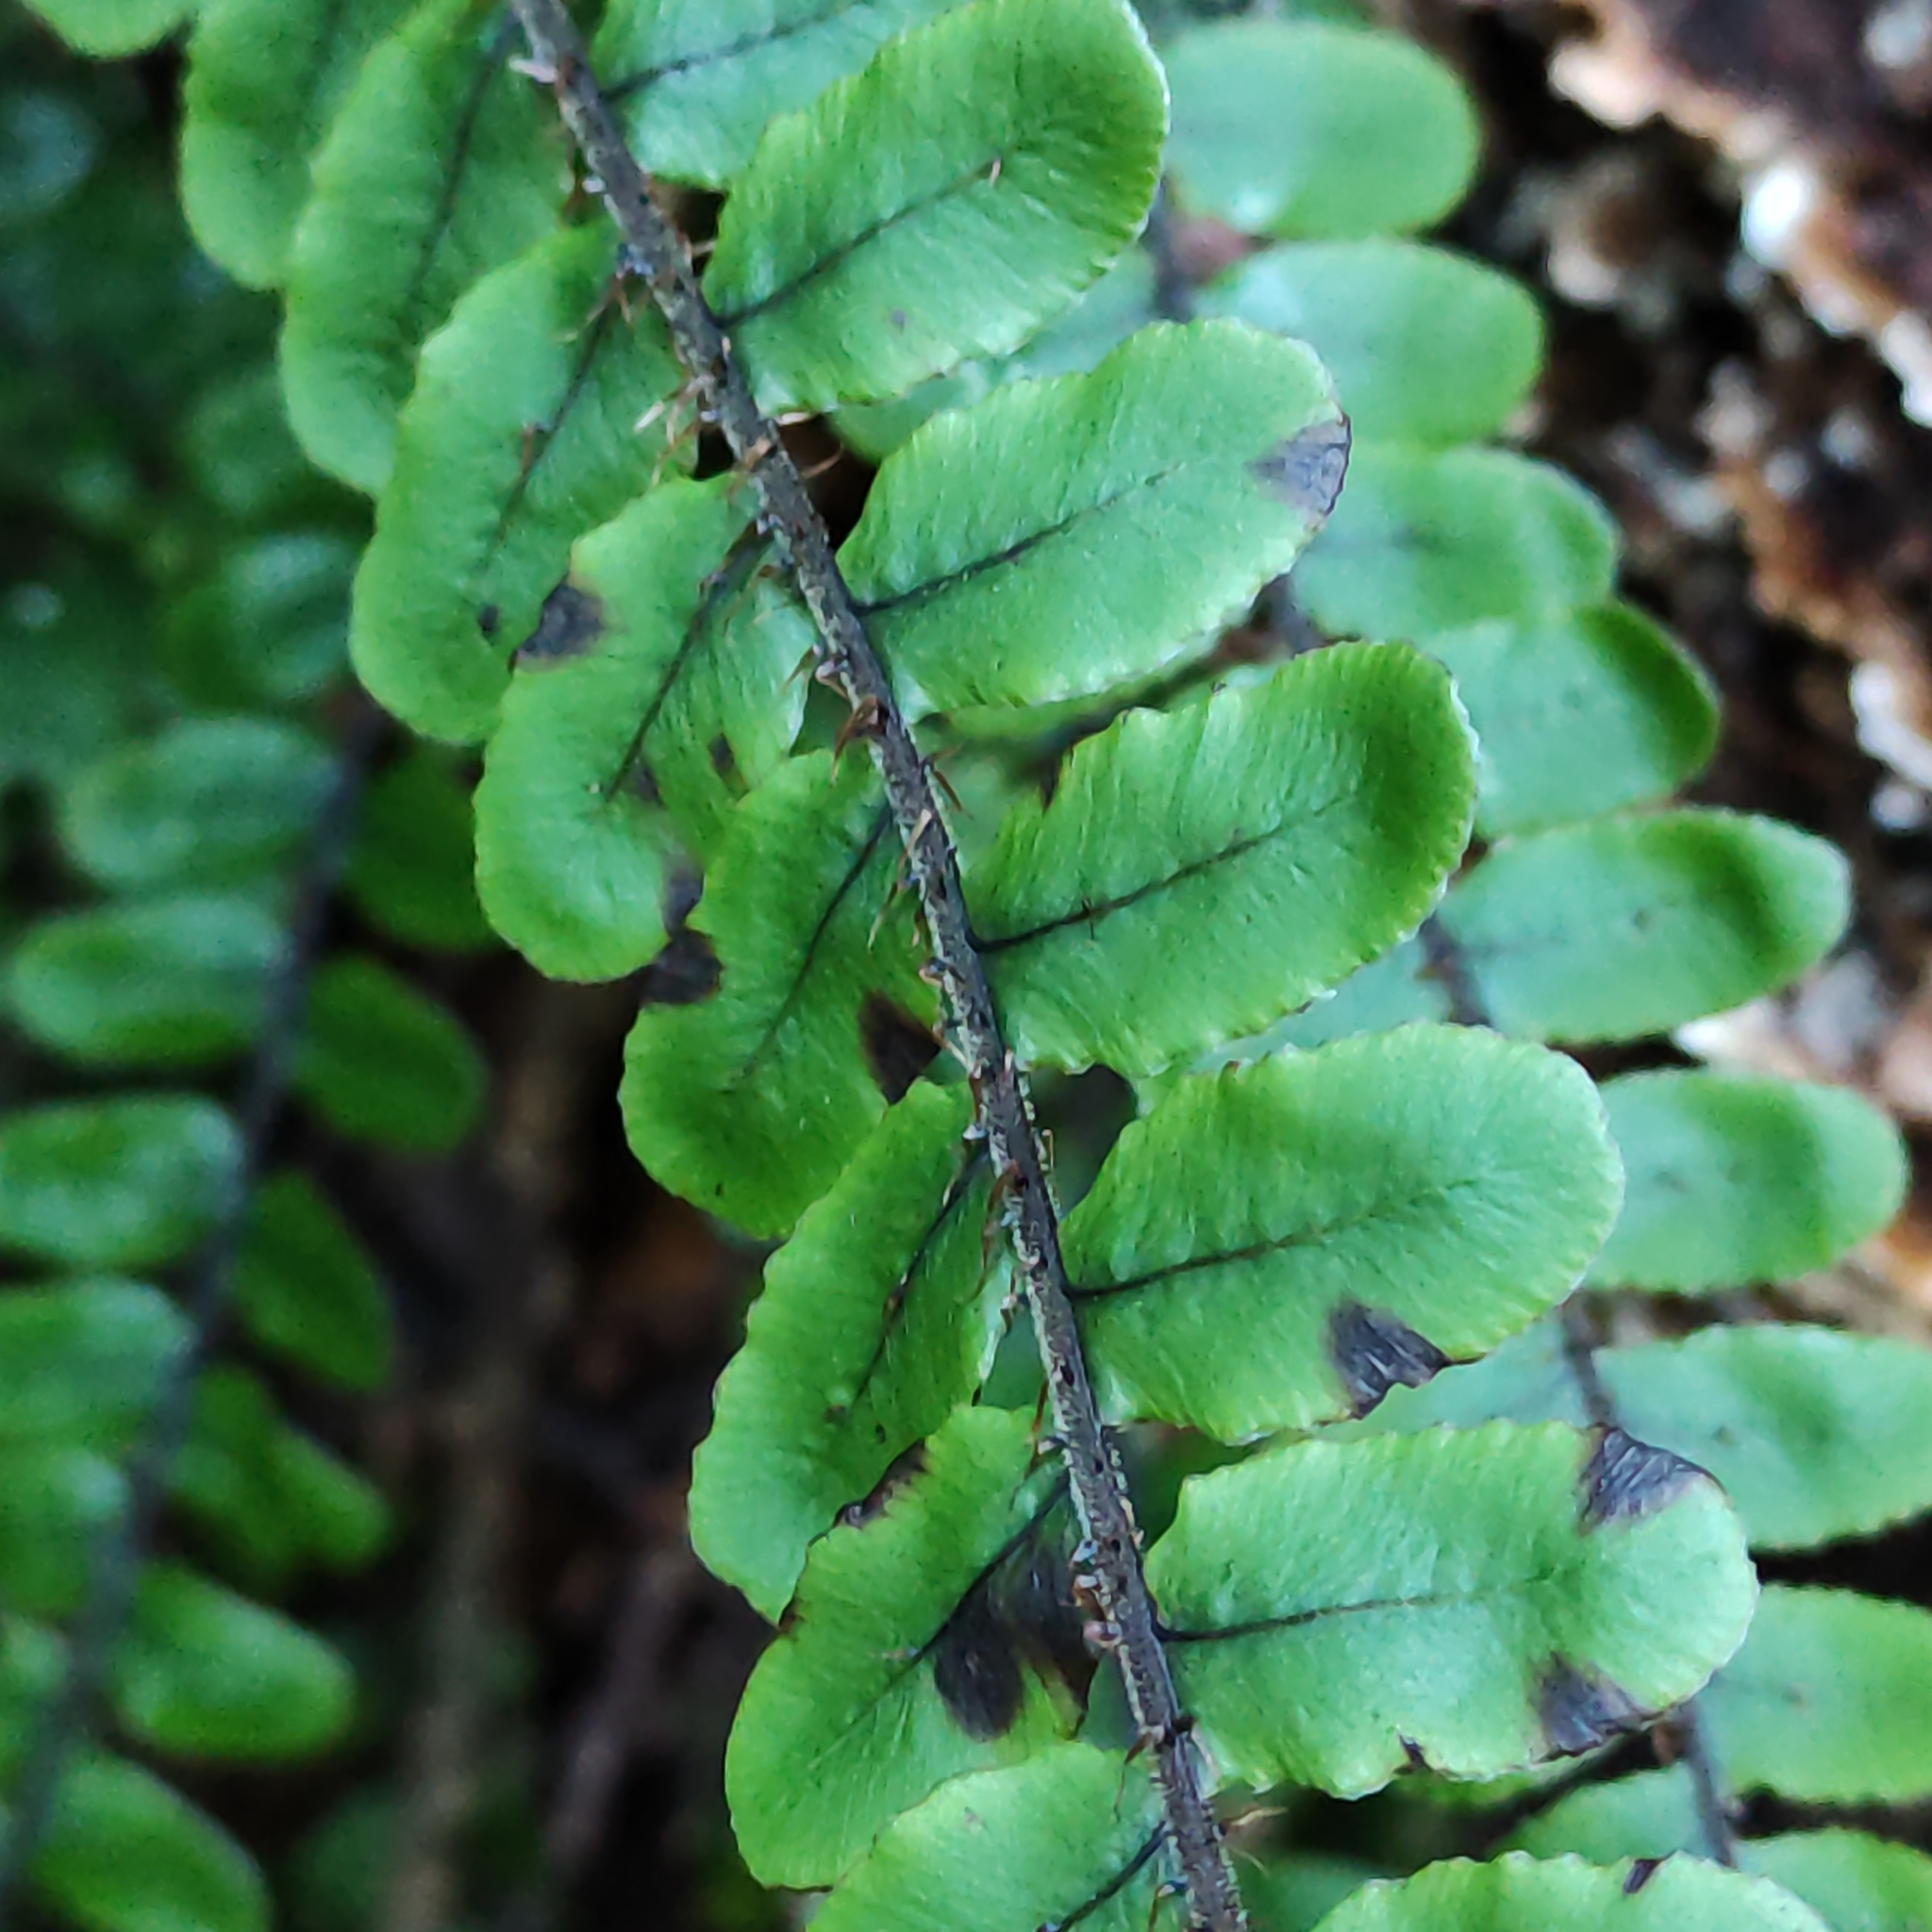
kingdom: Plantae
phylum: Tracheophyta
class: Polypodiopsida
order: Polypodiales
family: Blechnaceae
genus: Cranfillia
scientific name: Cranfillia fluviatilis
